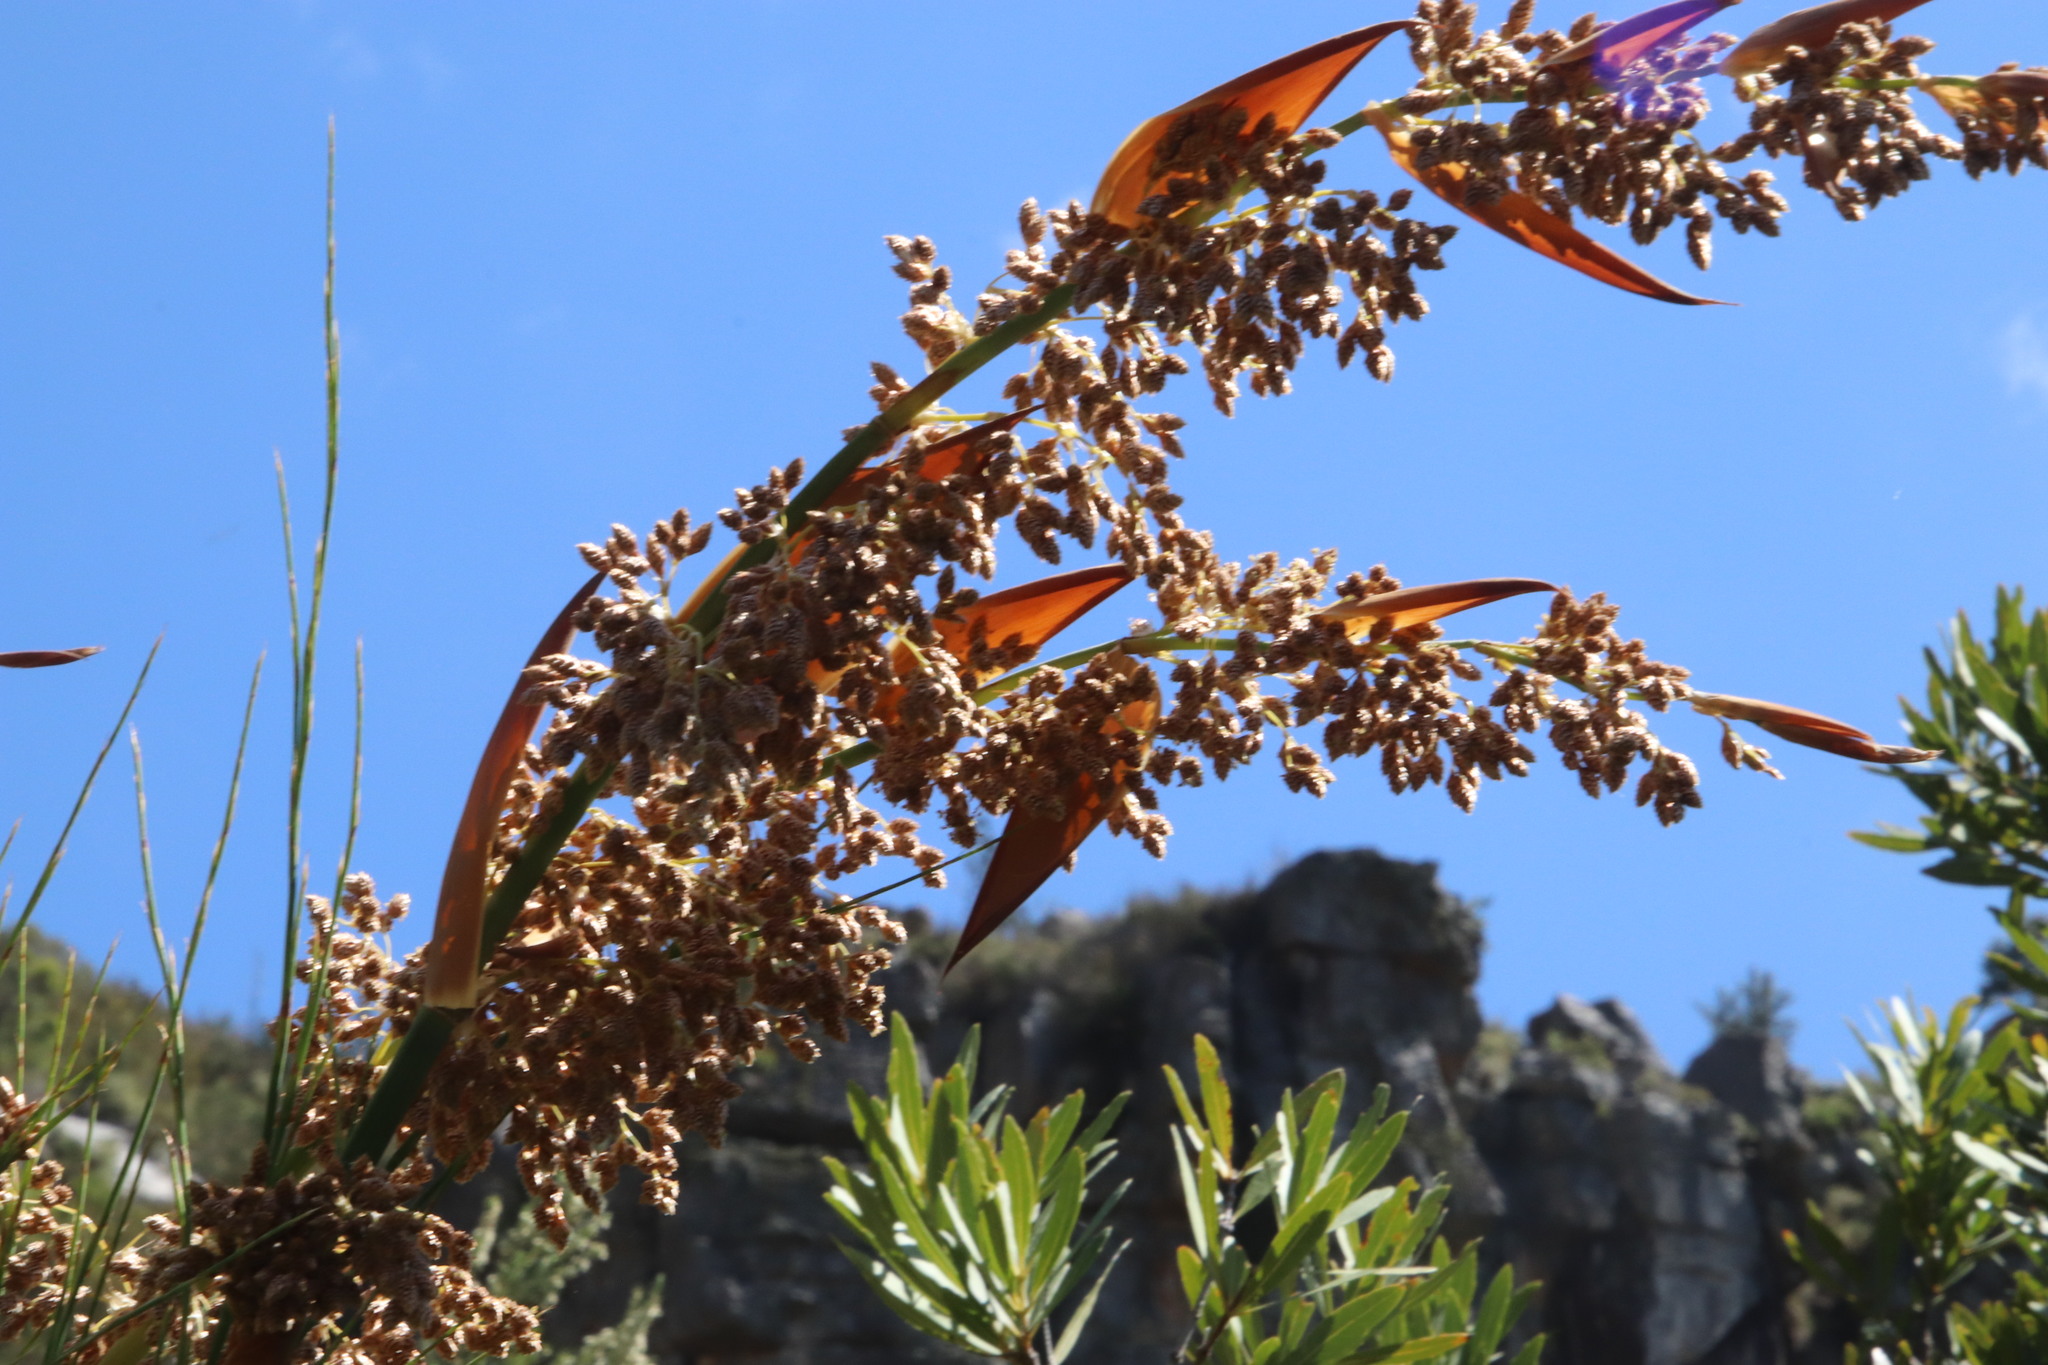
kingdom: Plantae
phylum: Tracheophyta
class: Liliopsida
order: Poales
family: Restionaceae
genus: Cannomois
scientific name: Cannomois grandis
